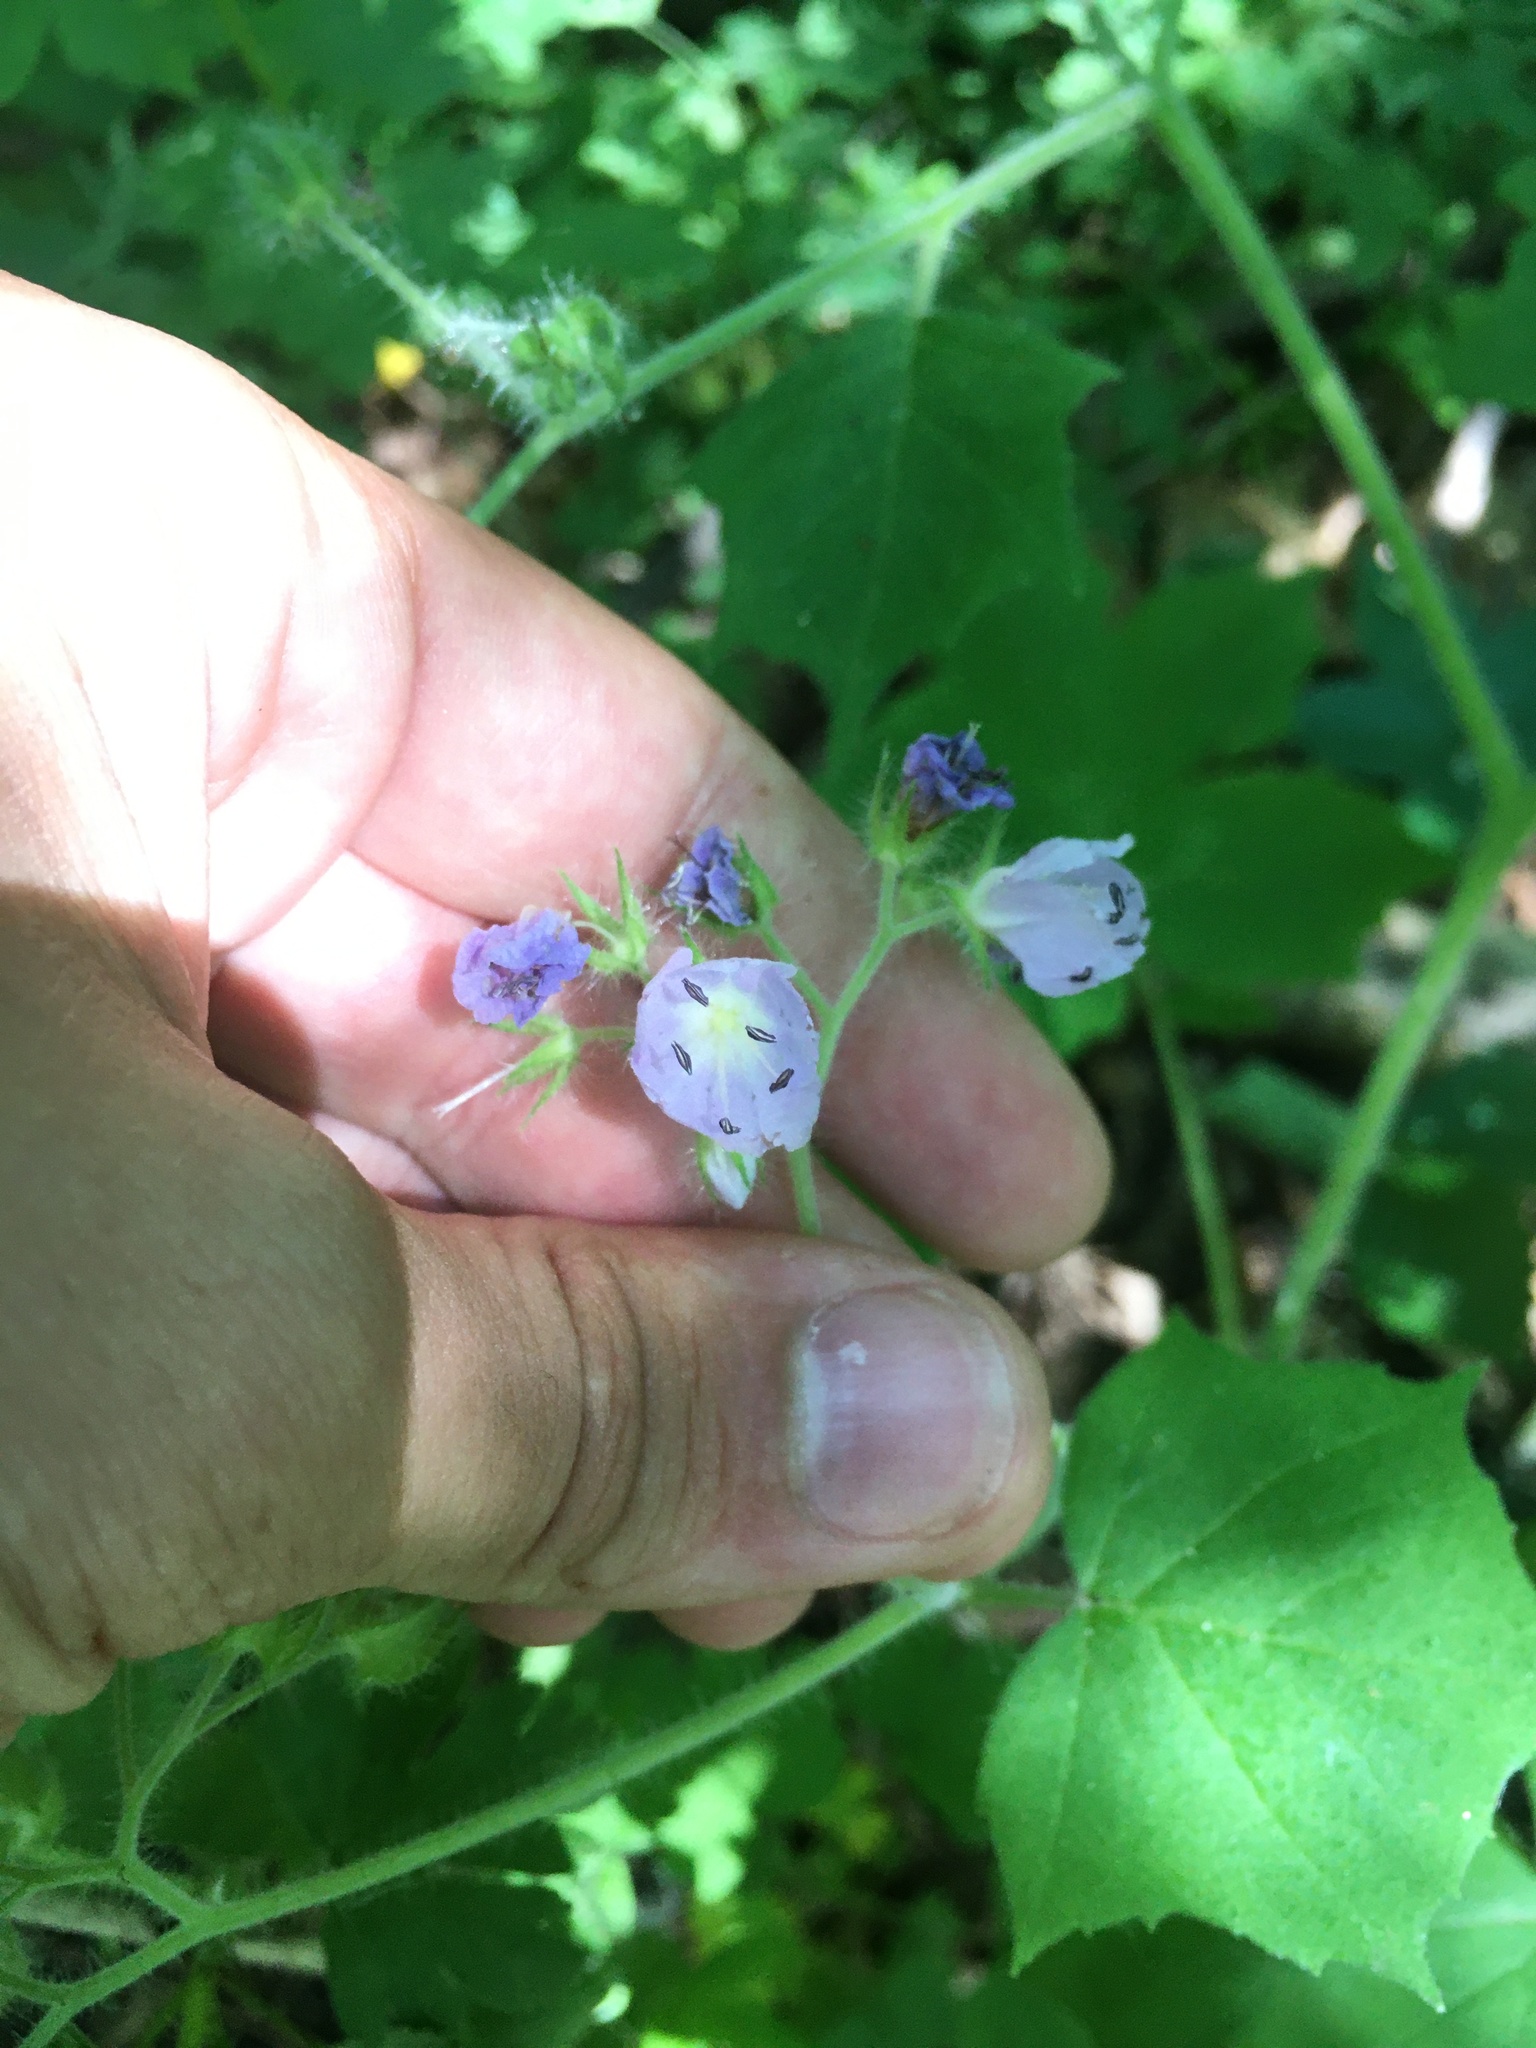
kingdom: Plantae
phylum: Tracheophyta
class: Magnoliopsida
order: Boraginales
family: Hydrophyllaceae
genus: Hydrophyllum
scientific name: Hydrophyllum appendiculatum
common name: Appendaged waterleaf
